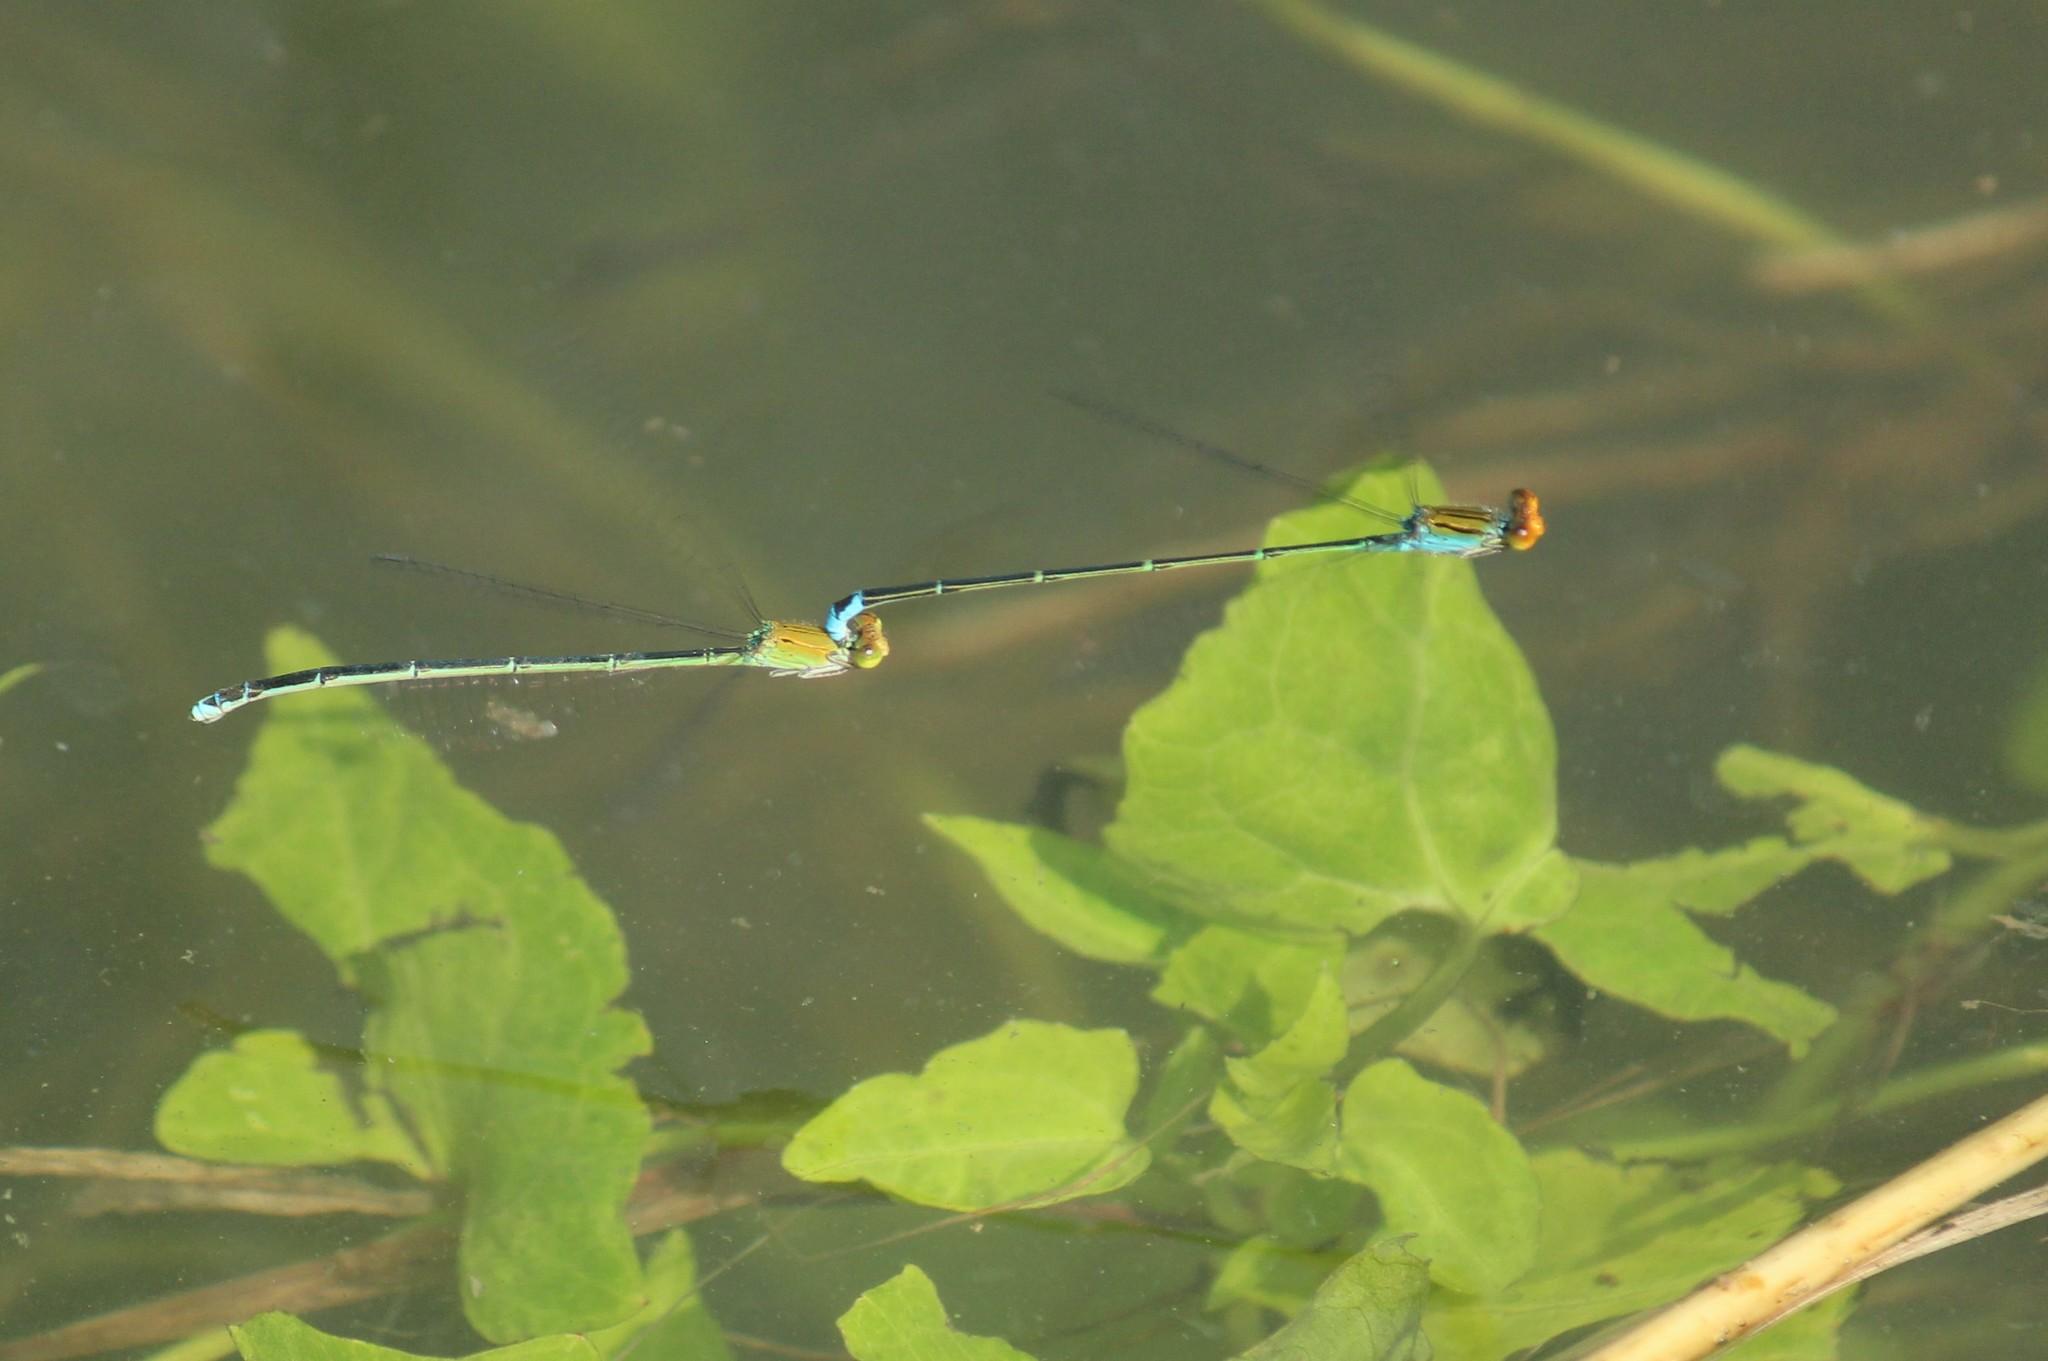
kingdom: Animalia
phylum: Arthropoda
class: Insecta
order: Odonata
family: Coenagrionidae
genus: Pseudagrion
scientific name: Pseudagrion rubriceps
